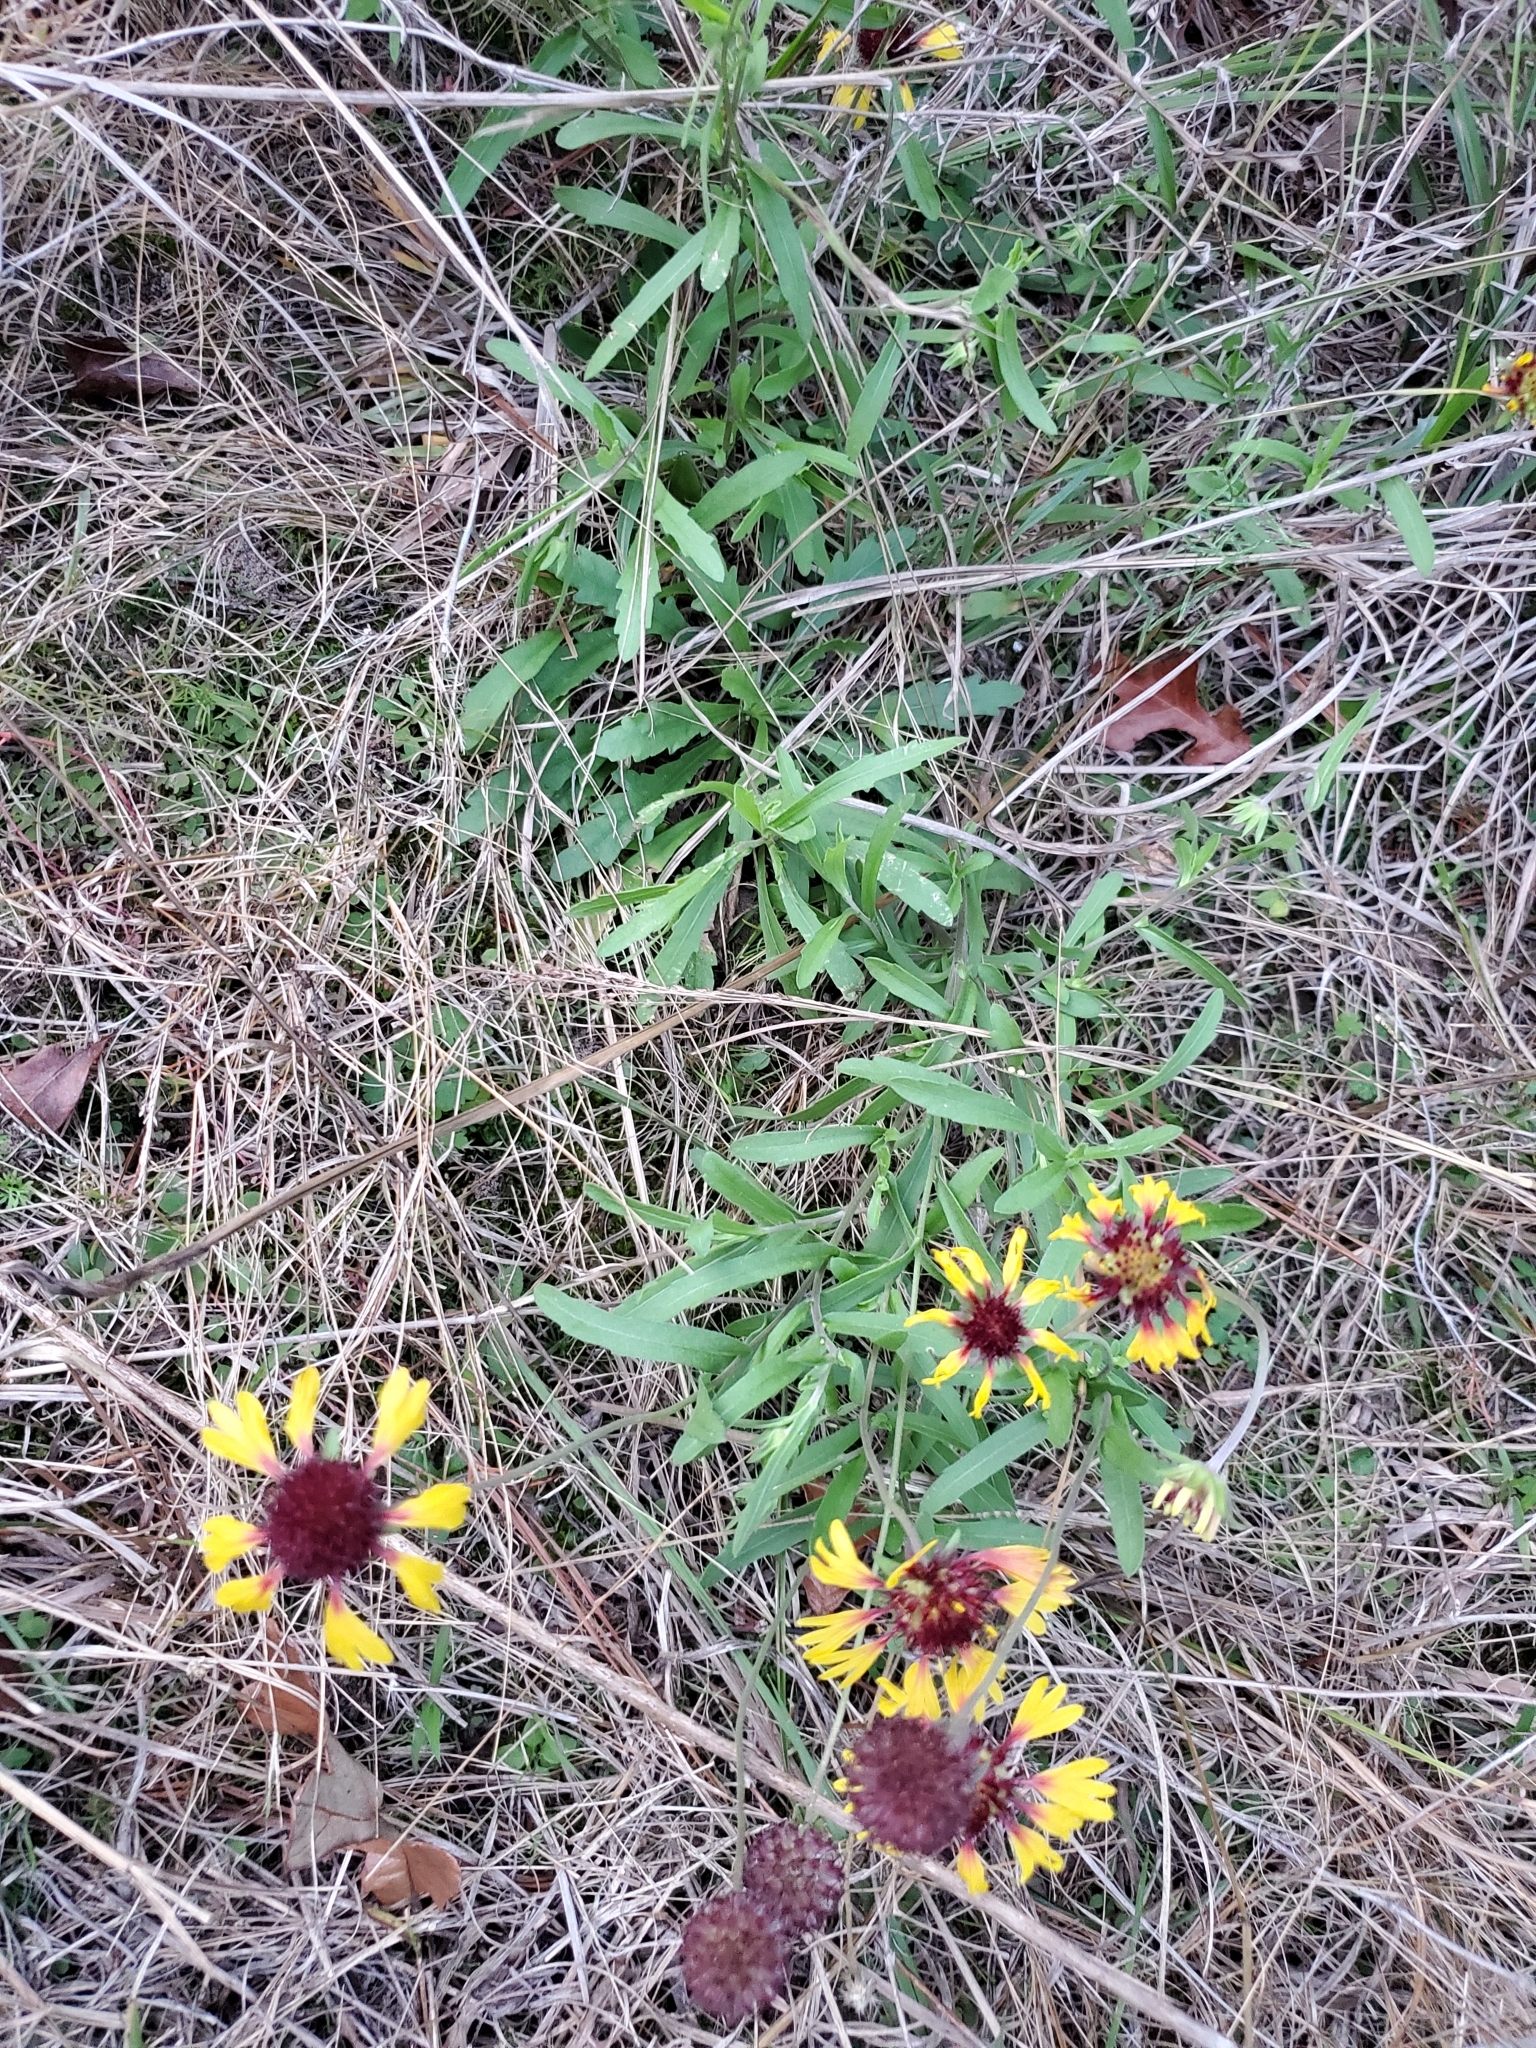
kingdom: Plantae
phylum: Tracheophyta
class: Magnoliopsida
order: Asterales
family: Asteraceae
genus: Gaillardia
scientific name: Gaillardia aestivalis
